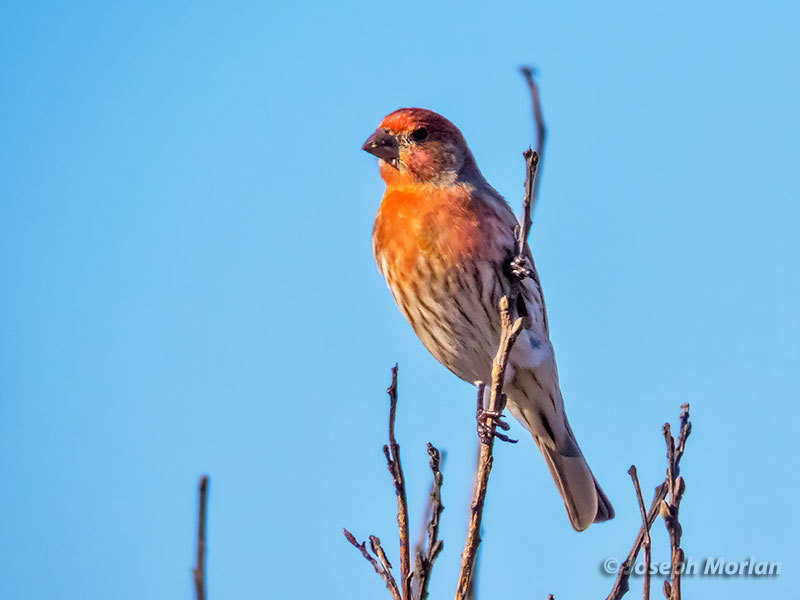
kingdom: Animalia
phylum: Chordata
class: Aves
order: Passeriformes
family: Fringillidae
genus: Haemorhous
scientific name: Haemorhous mexicanus
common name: House finch
